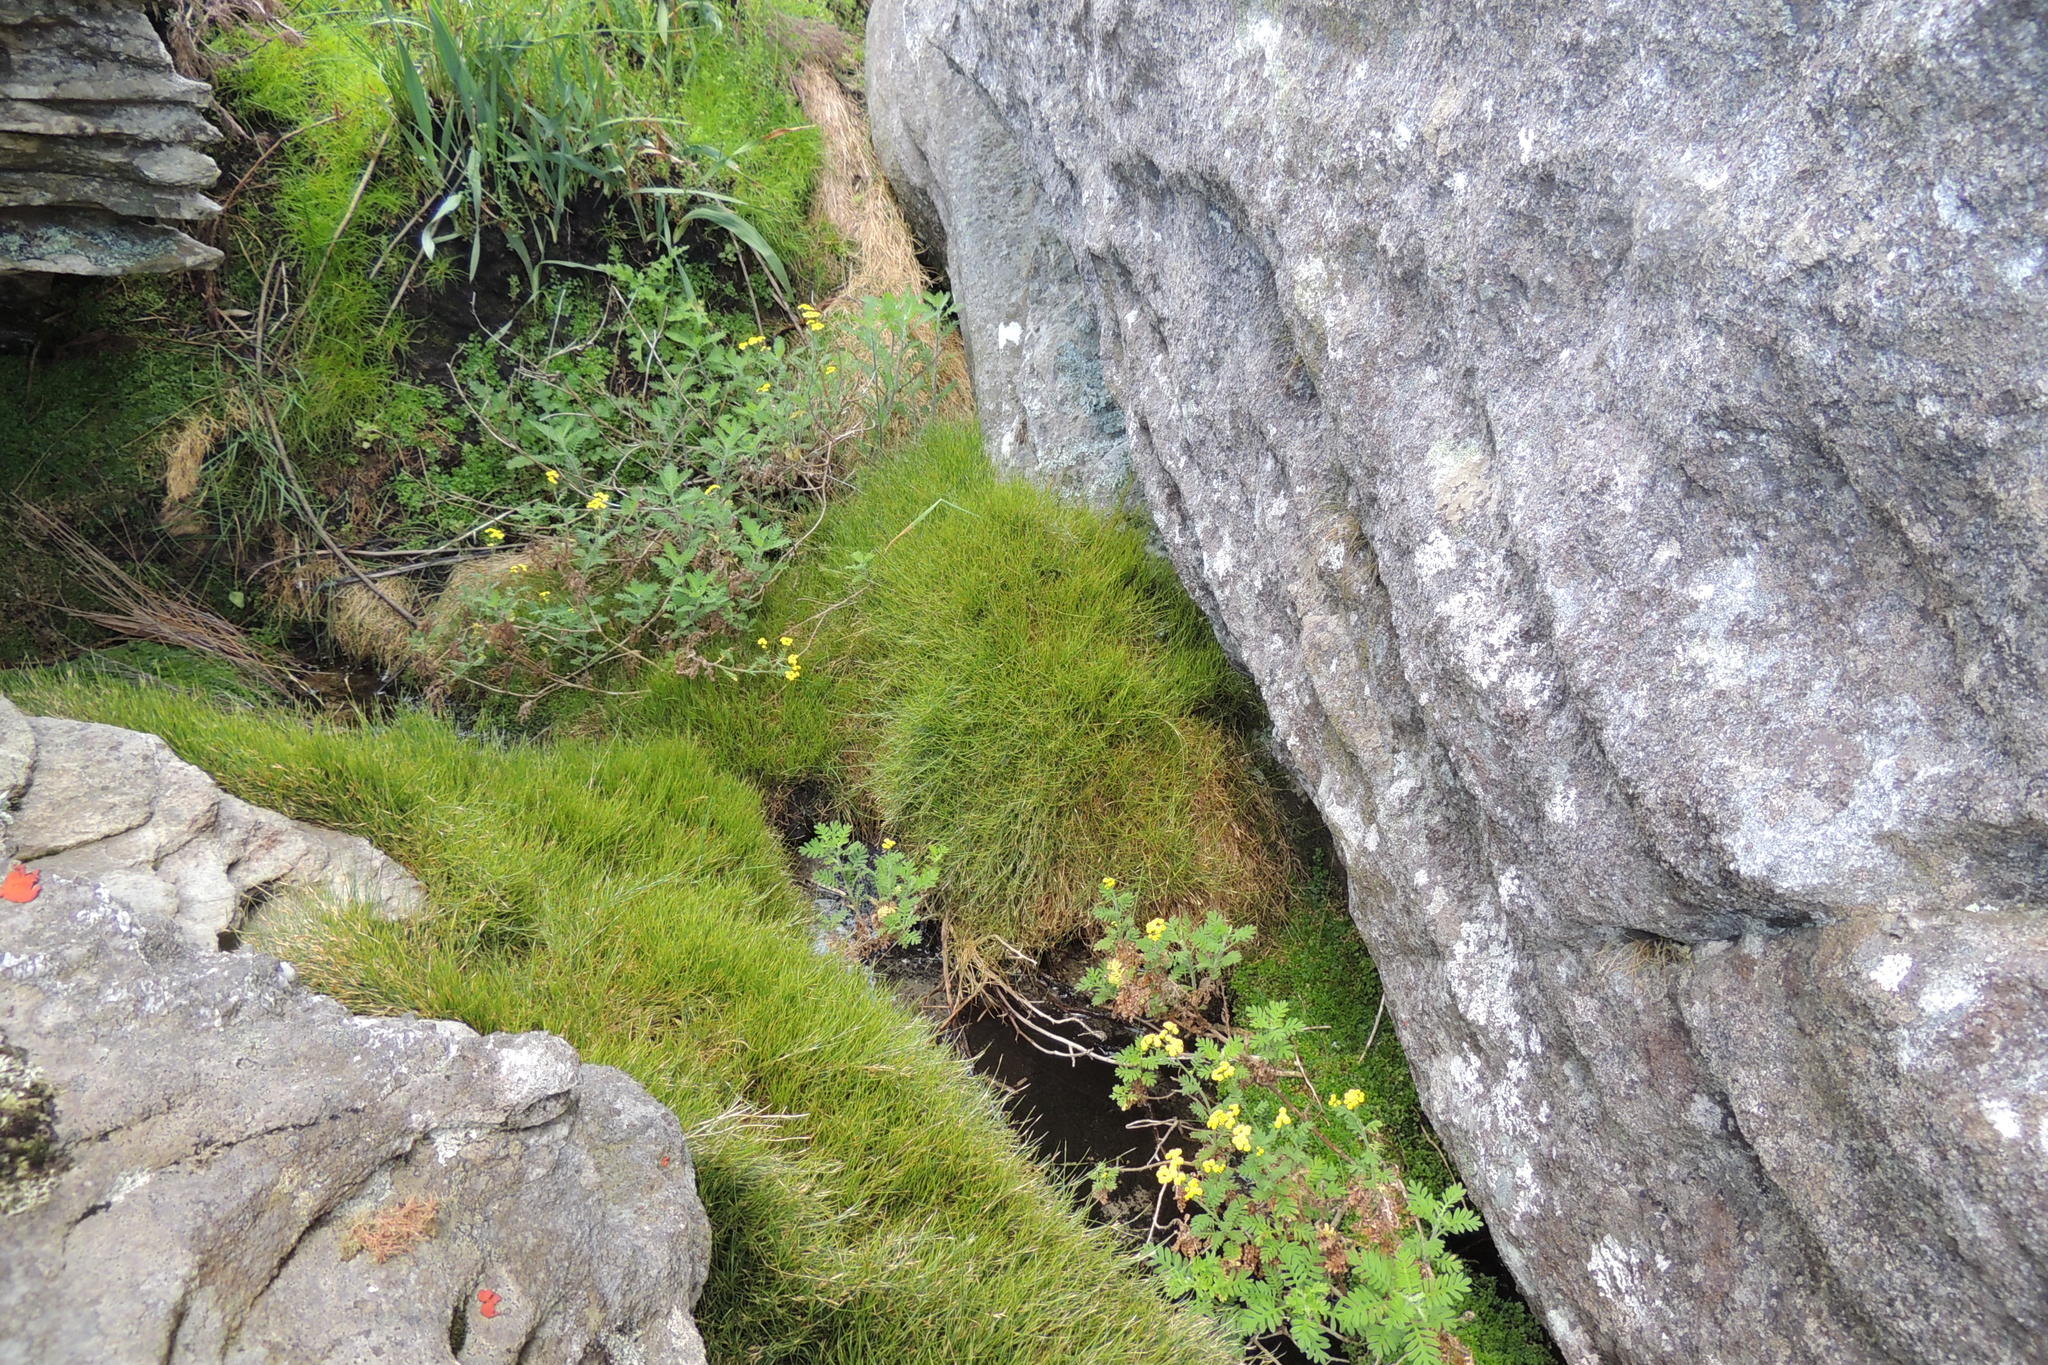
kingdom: Plantae
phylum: Tracheophyta
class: Magnoliopsida
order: Asterales
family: Asteraceae
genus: Hippia
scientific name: Hippia frutescens
